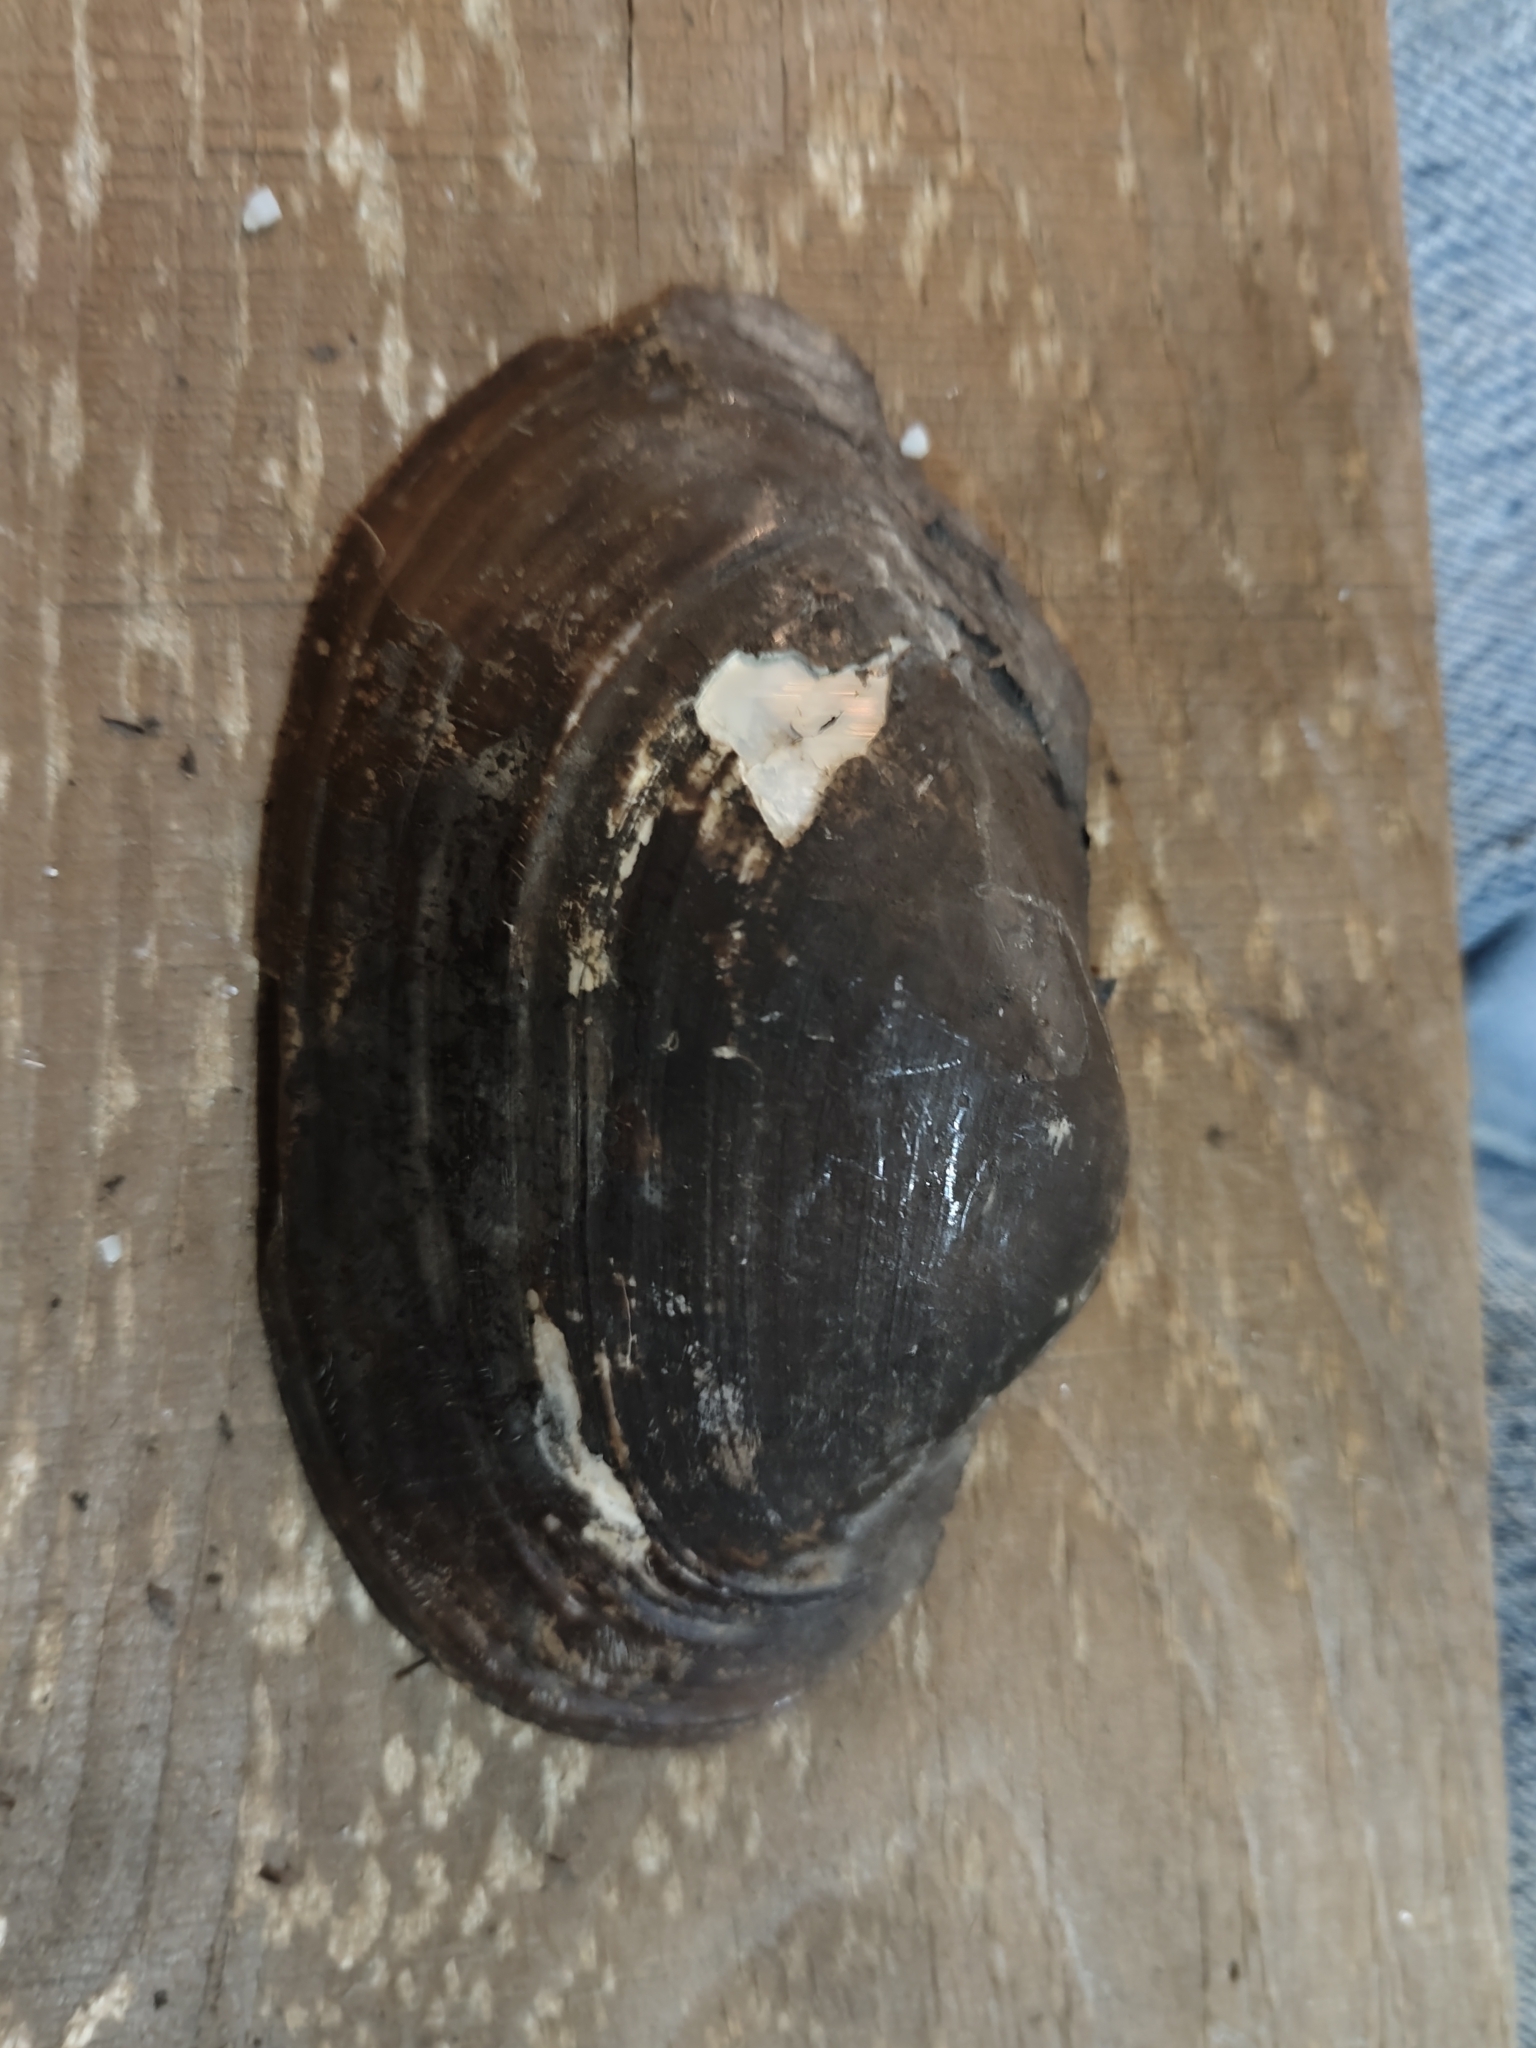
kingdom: Animalia
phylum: Mollusca
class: Bivalvia
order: Unionida
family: Unionidae
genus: Pyganodon
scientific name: Pyganodon grandis
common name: Giant floater
